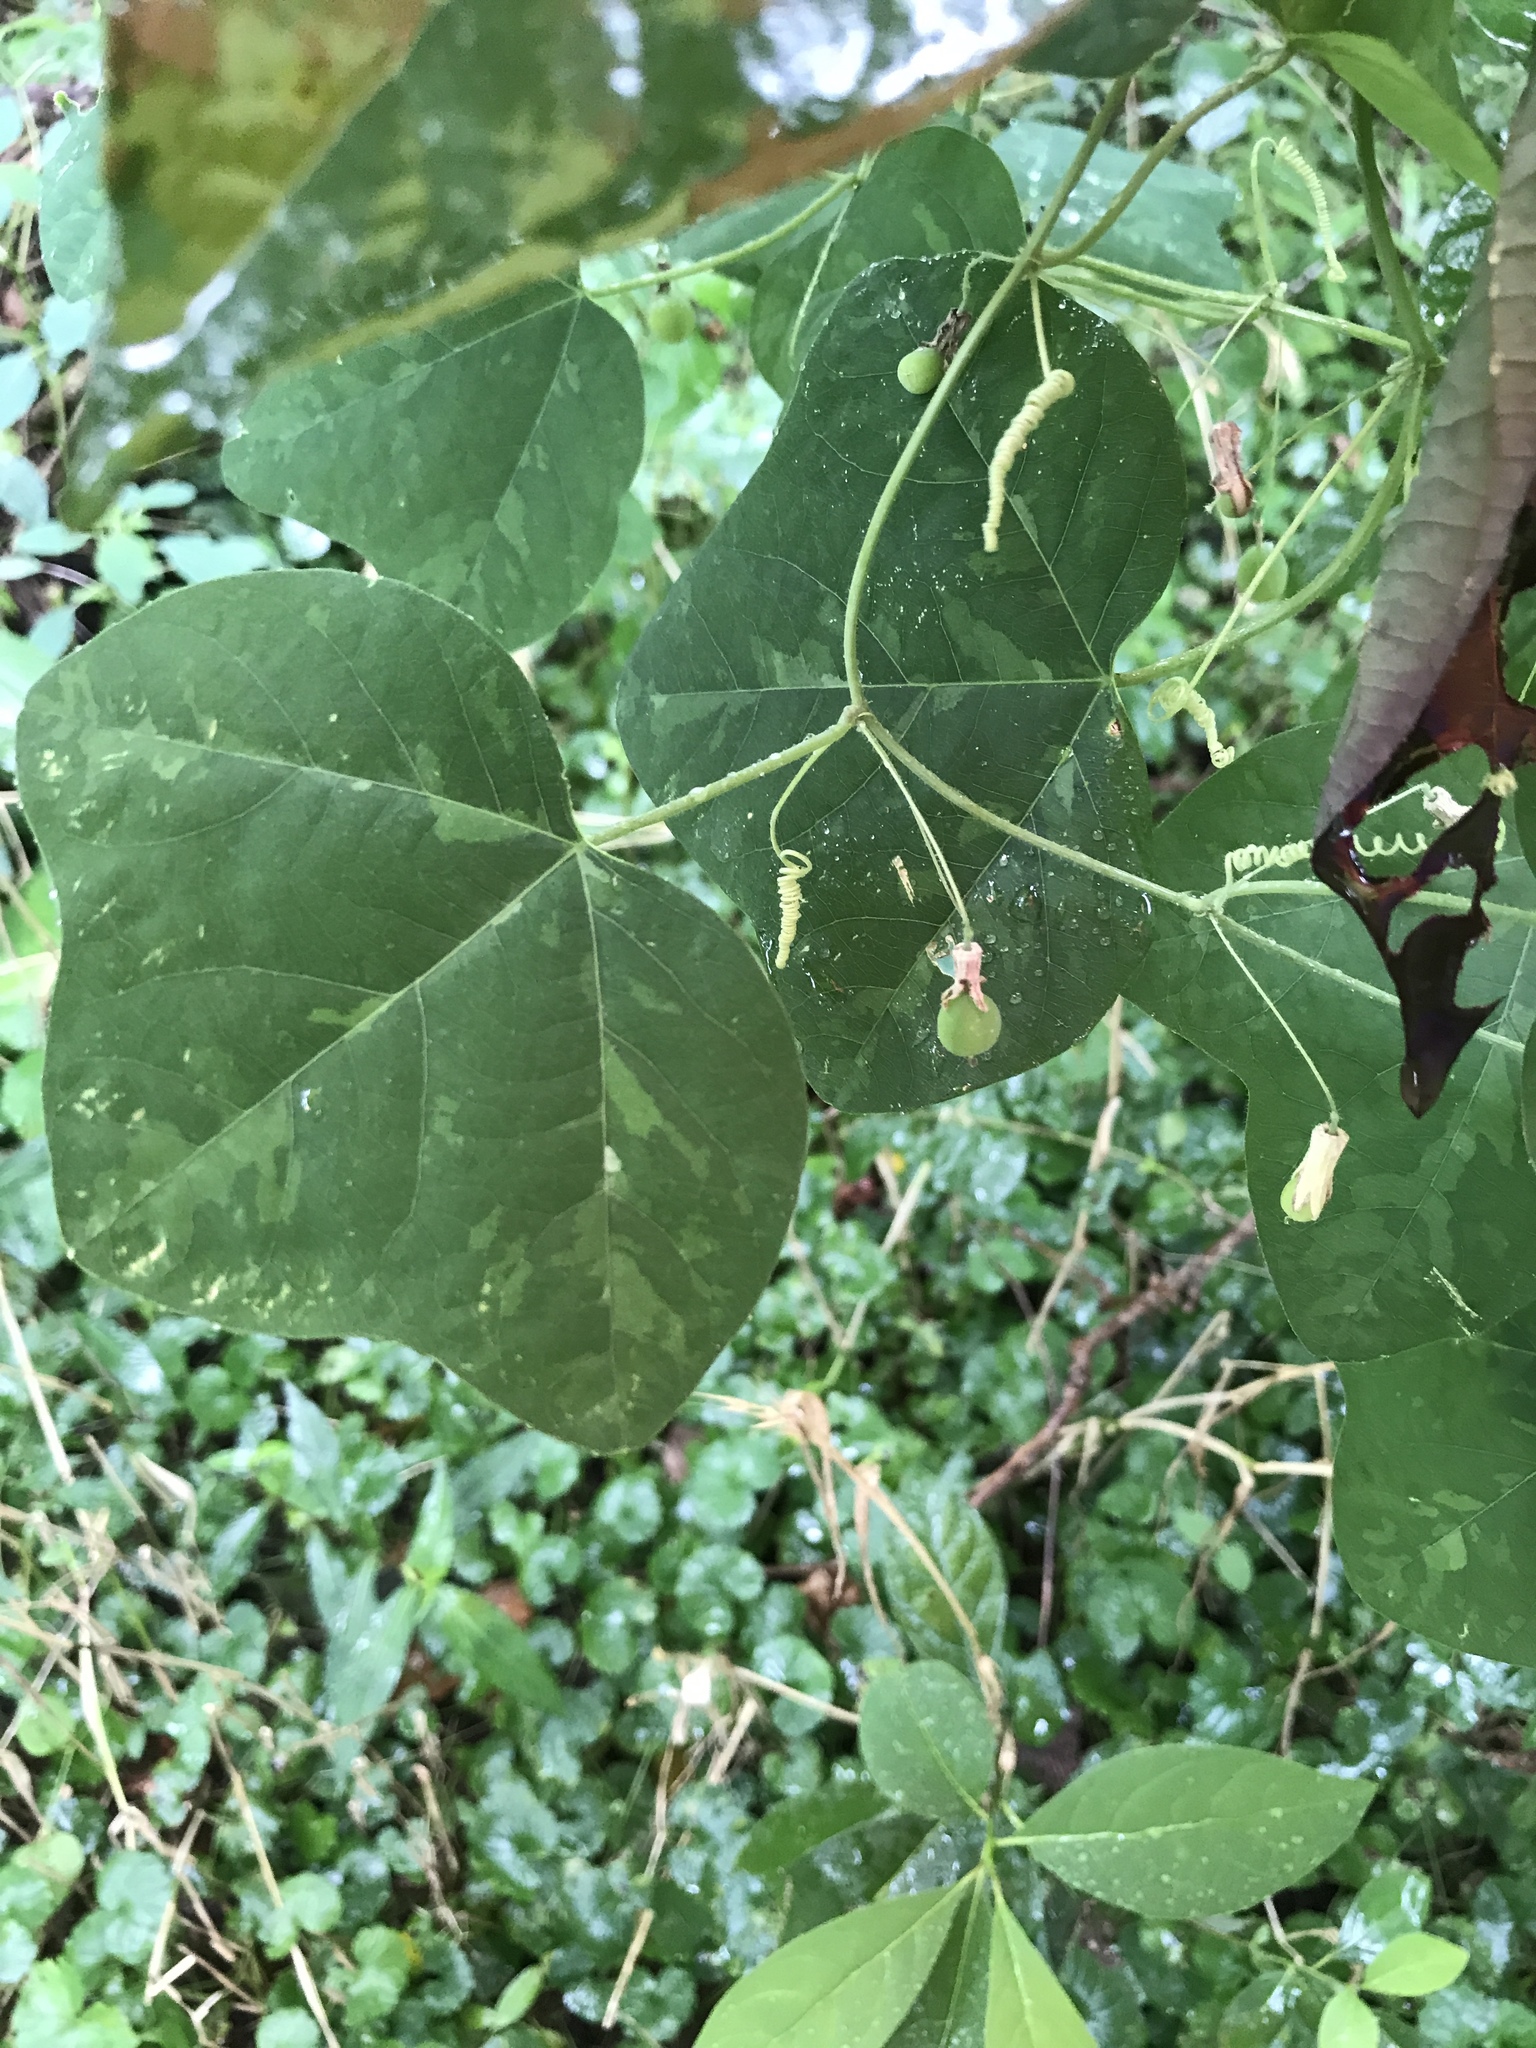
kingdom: Plantae
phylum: Tracheophyta
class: Magnoliopsida
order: Malpighiales
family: Passifloraceae
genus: Passiflora
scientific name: Passiflora lutea
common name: Yellow passionflower
